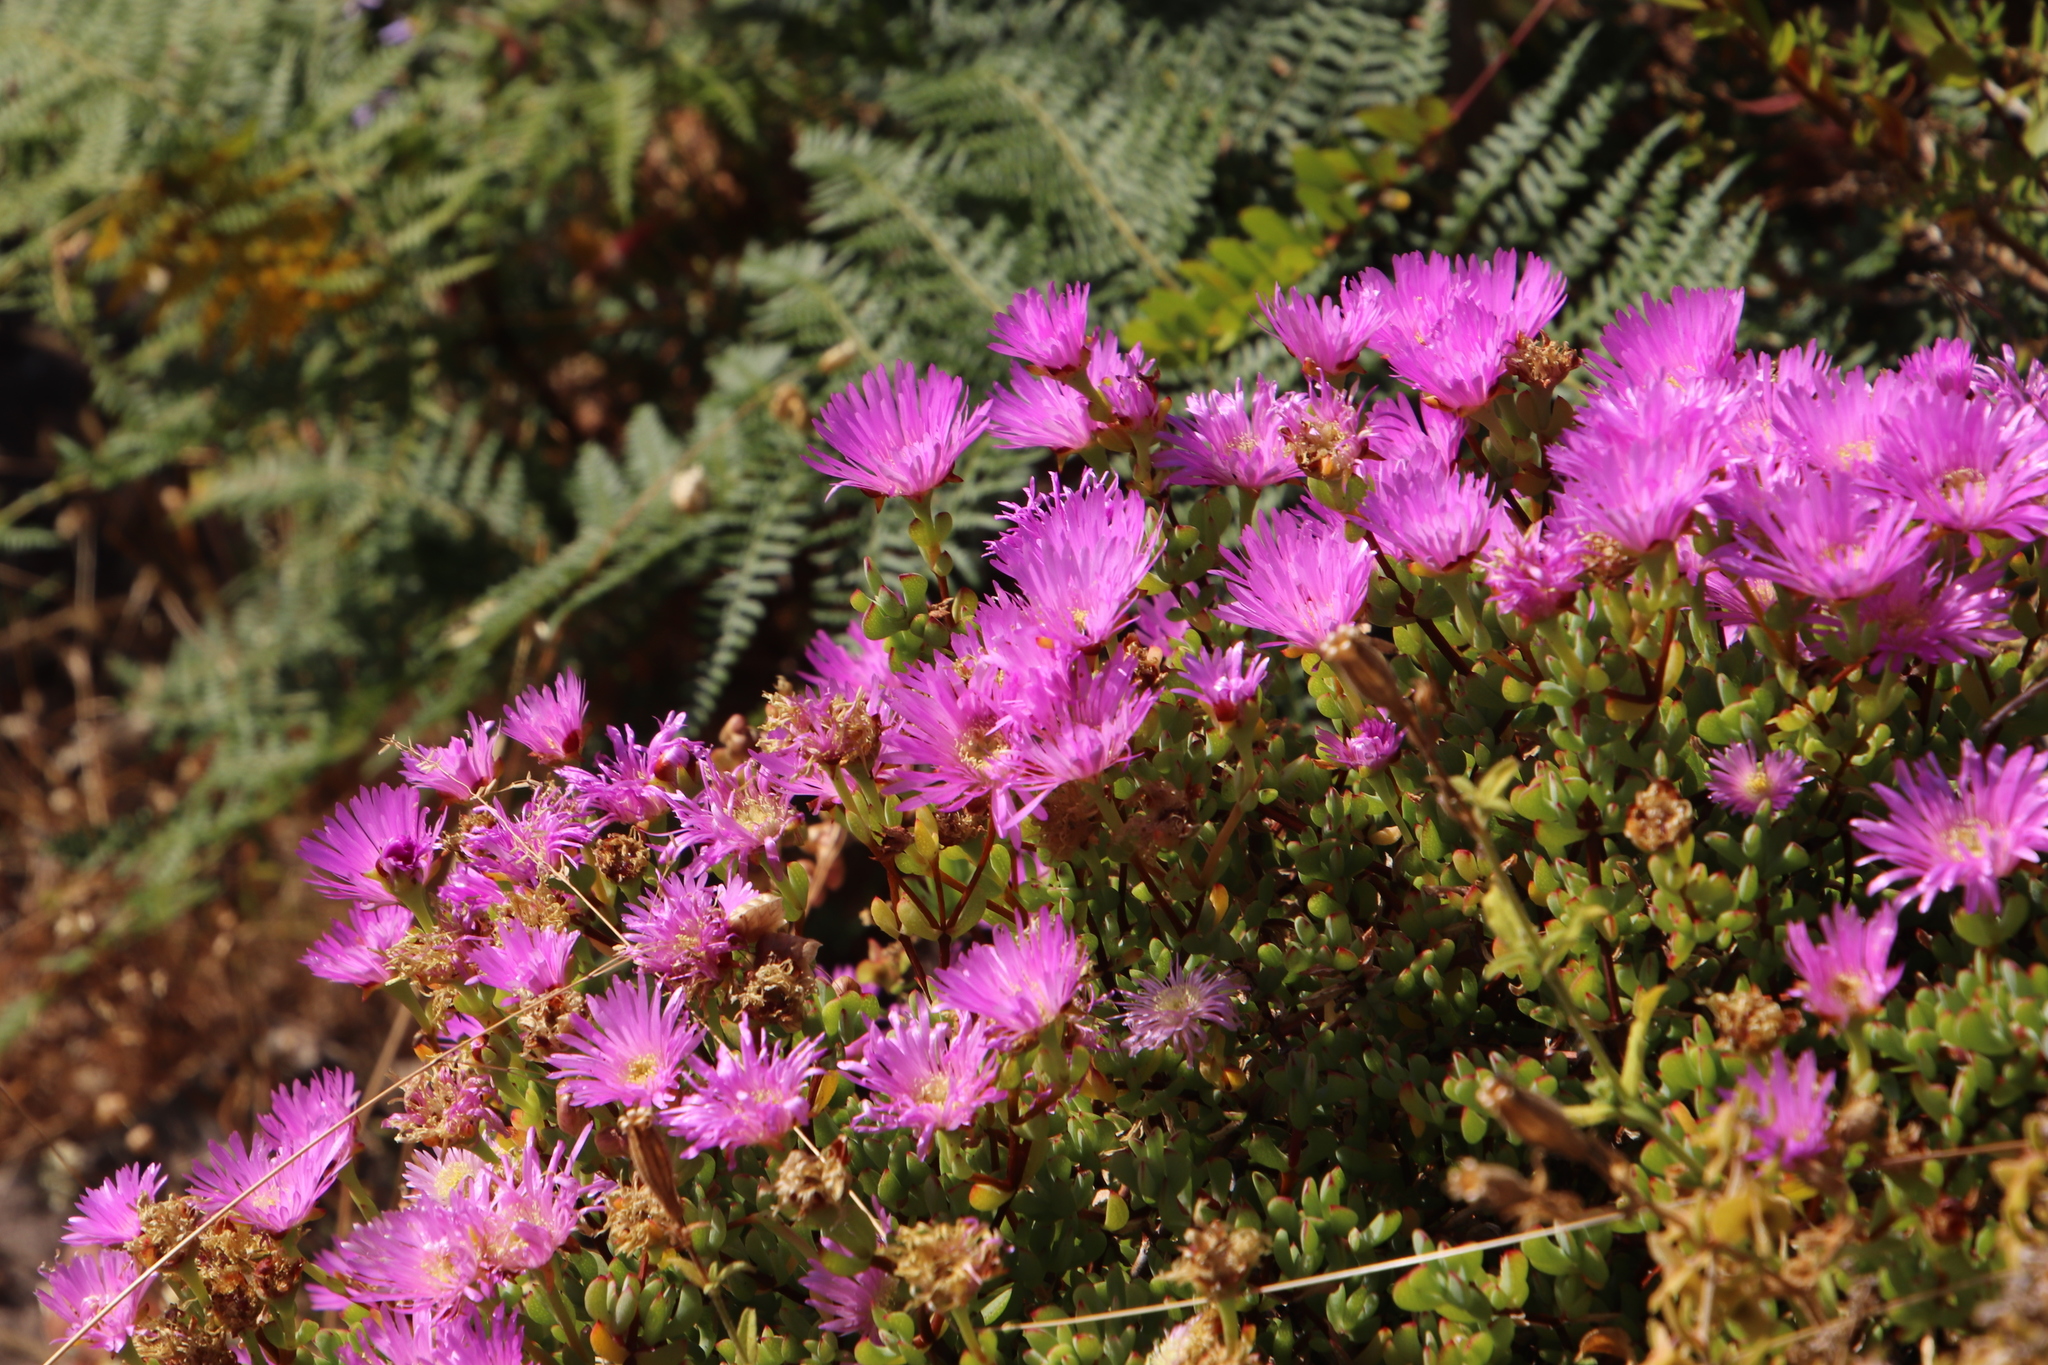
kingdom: Plantae
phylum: Tracheophyta
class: Magnoliopsida
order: Caryophyllales
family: Aizoaceae
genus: Oscularia
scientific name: Oscularia falciformis
